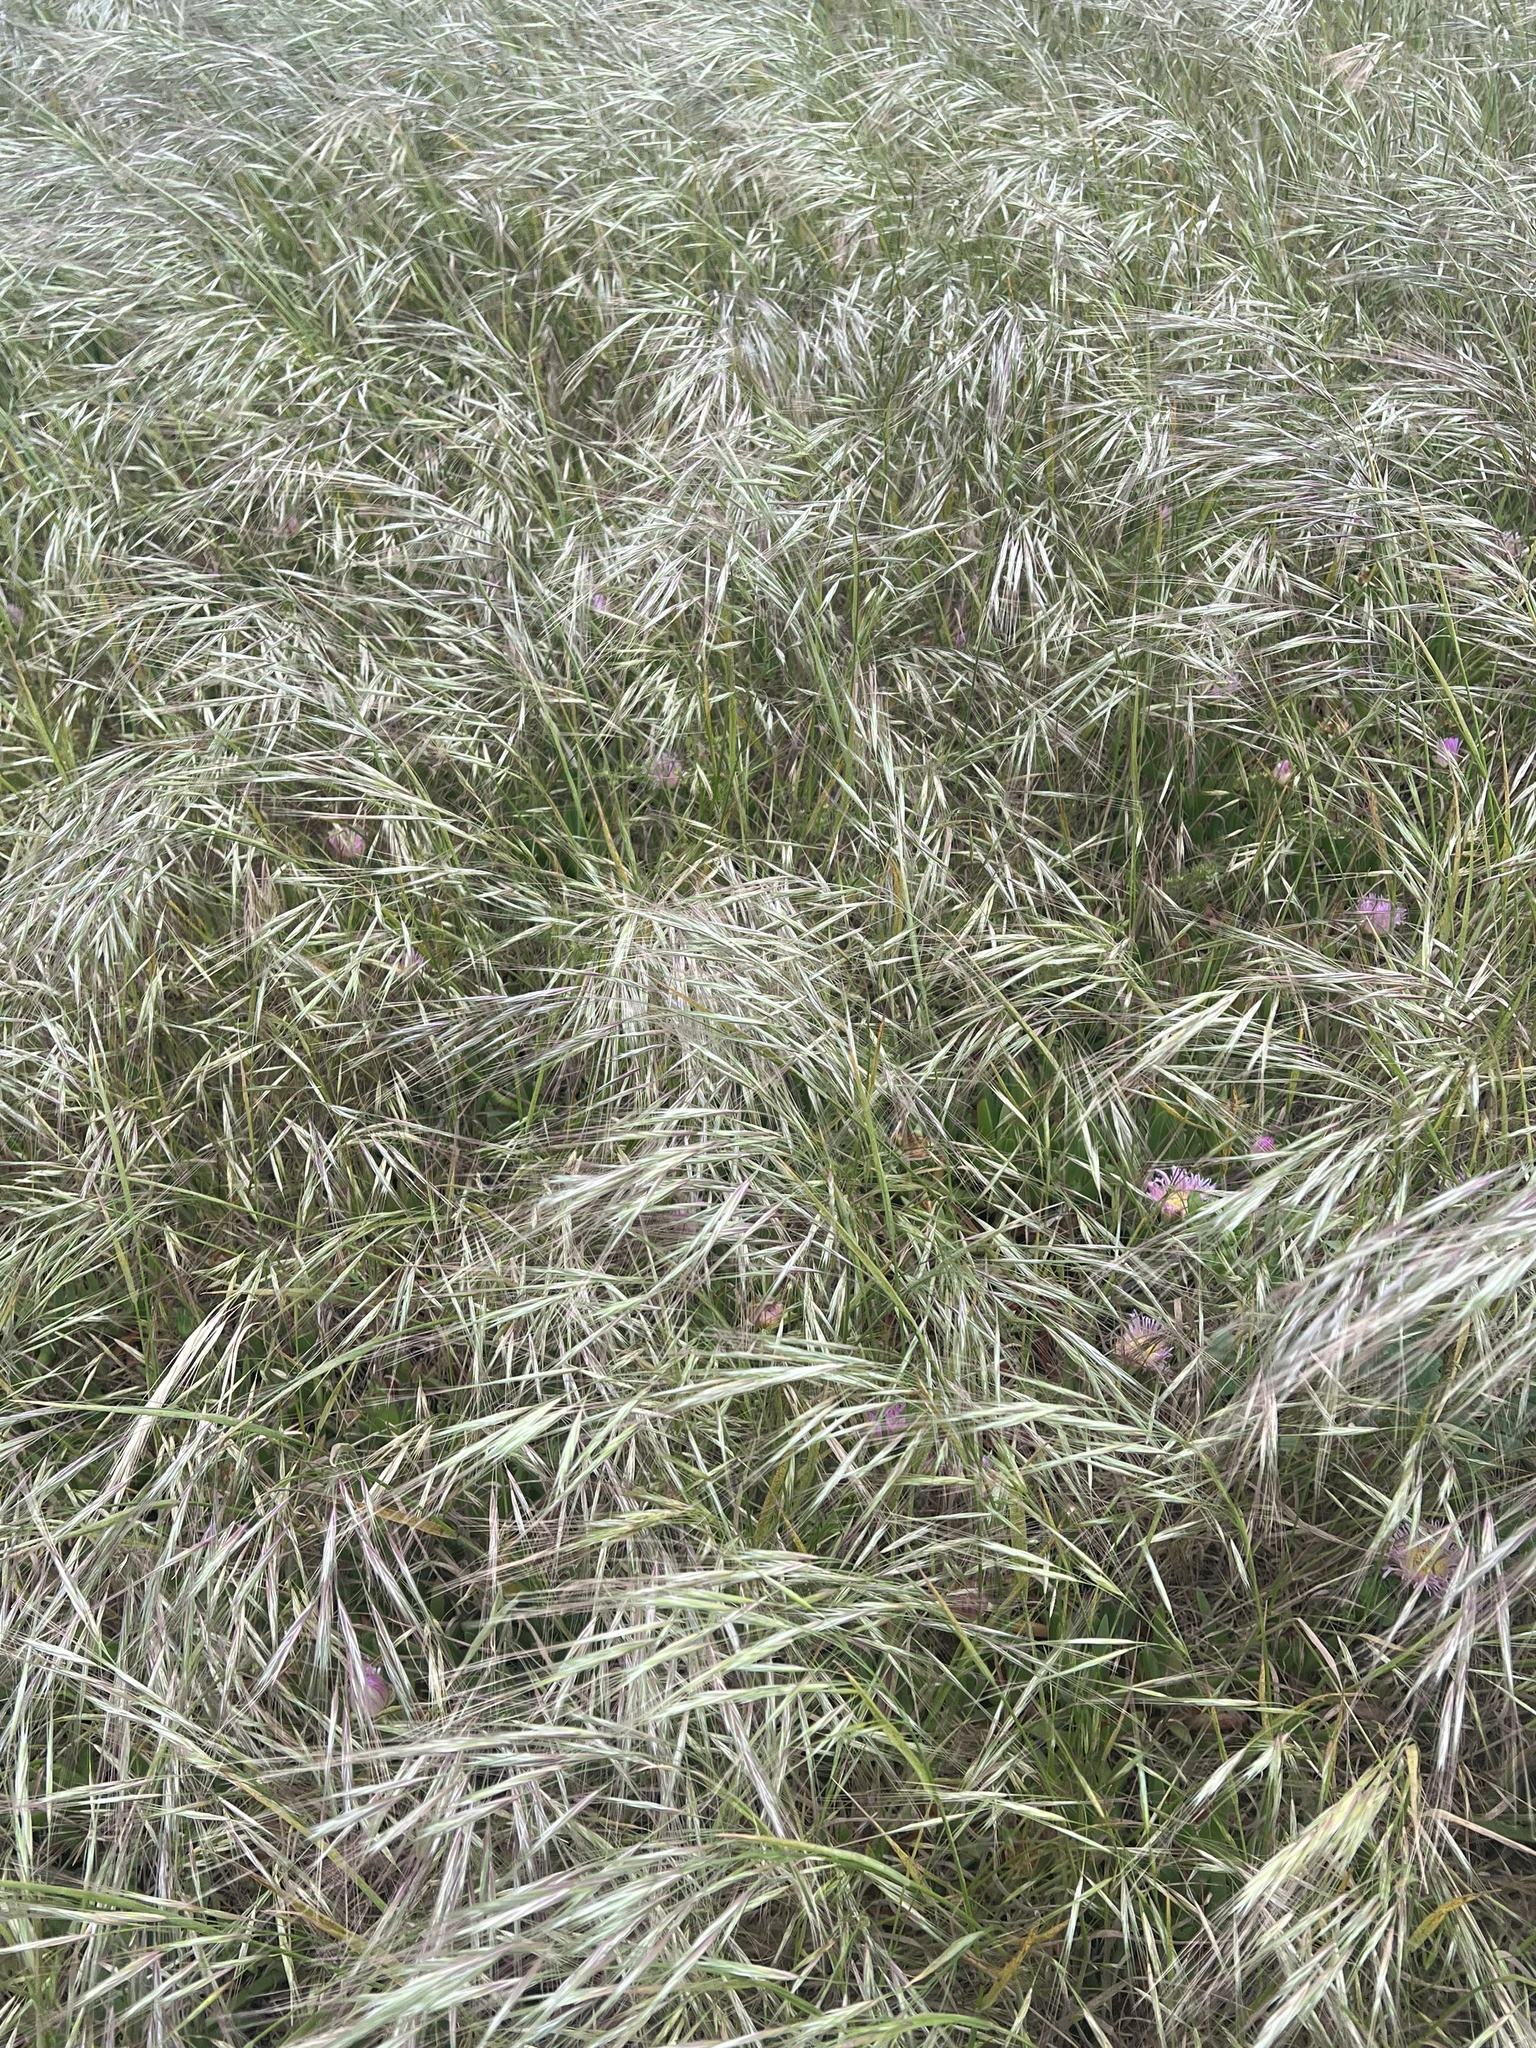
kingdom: Plantae
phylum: Tracheophyta
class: Liliopsida
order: Poales
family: Poaceae
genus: Bromus
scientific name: Bromus diandrus
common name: Ripgut brome
